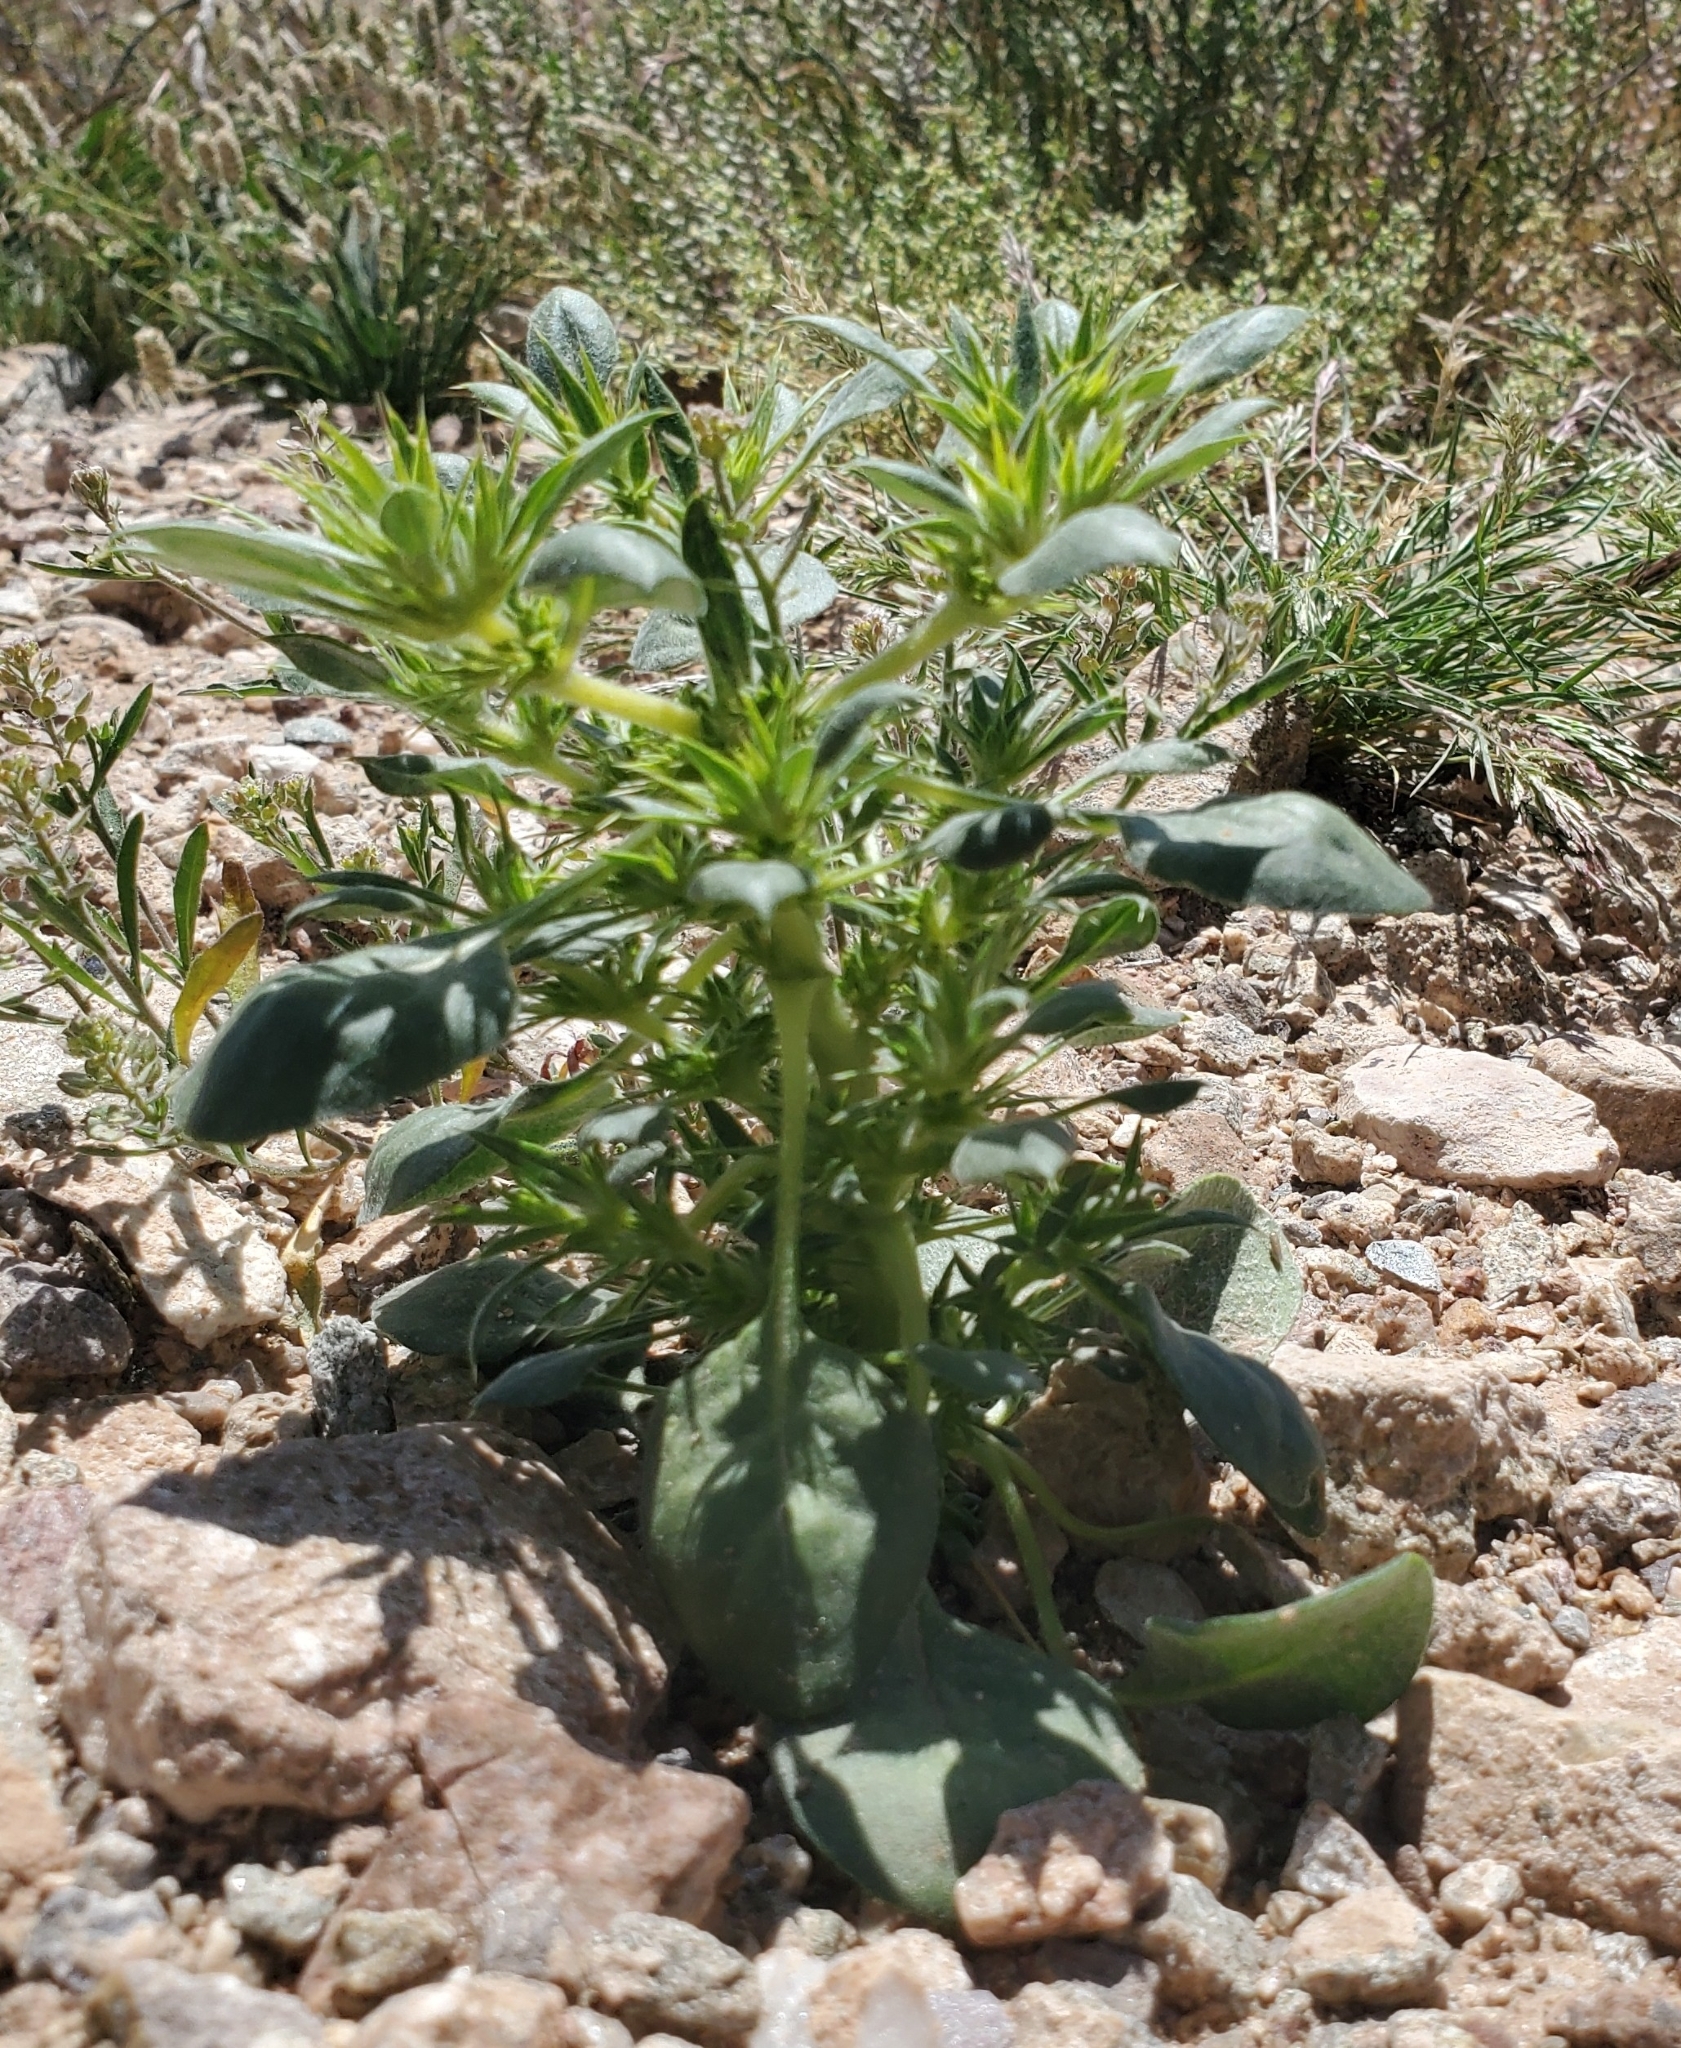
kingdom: Plantae
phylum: Tracheophyta
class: Magnoliopsida
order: Caryophyllales
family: Polygonaceae
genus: Chorizanthe
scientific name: Chorizanthe rigida
